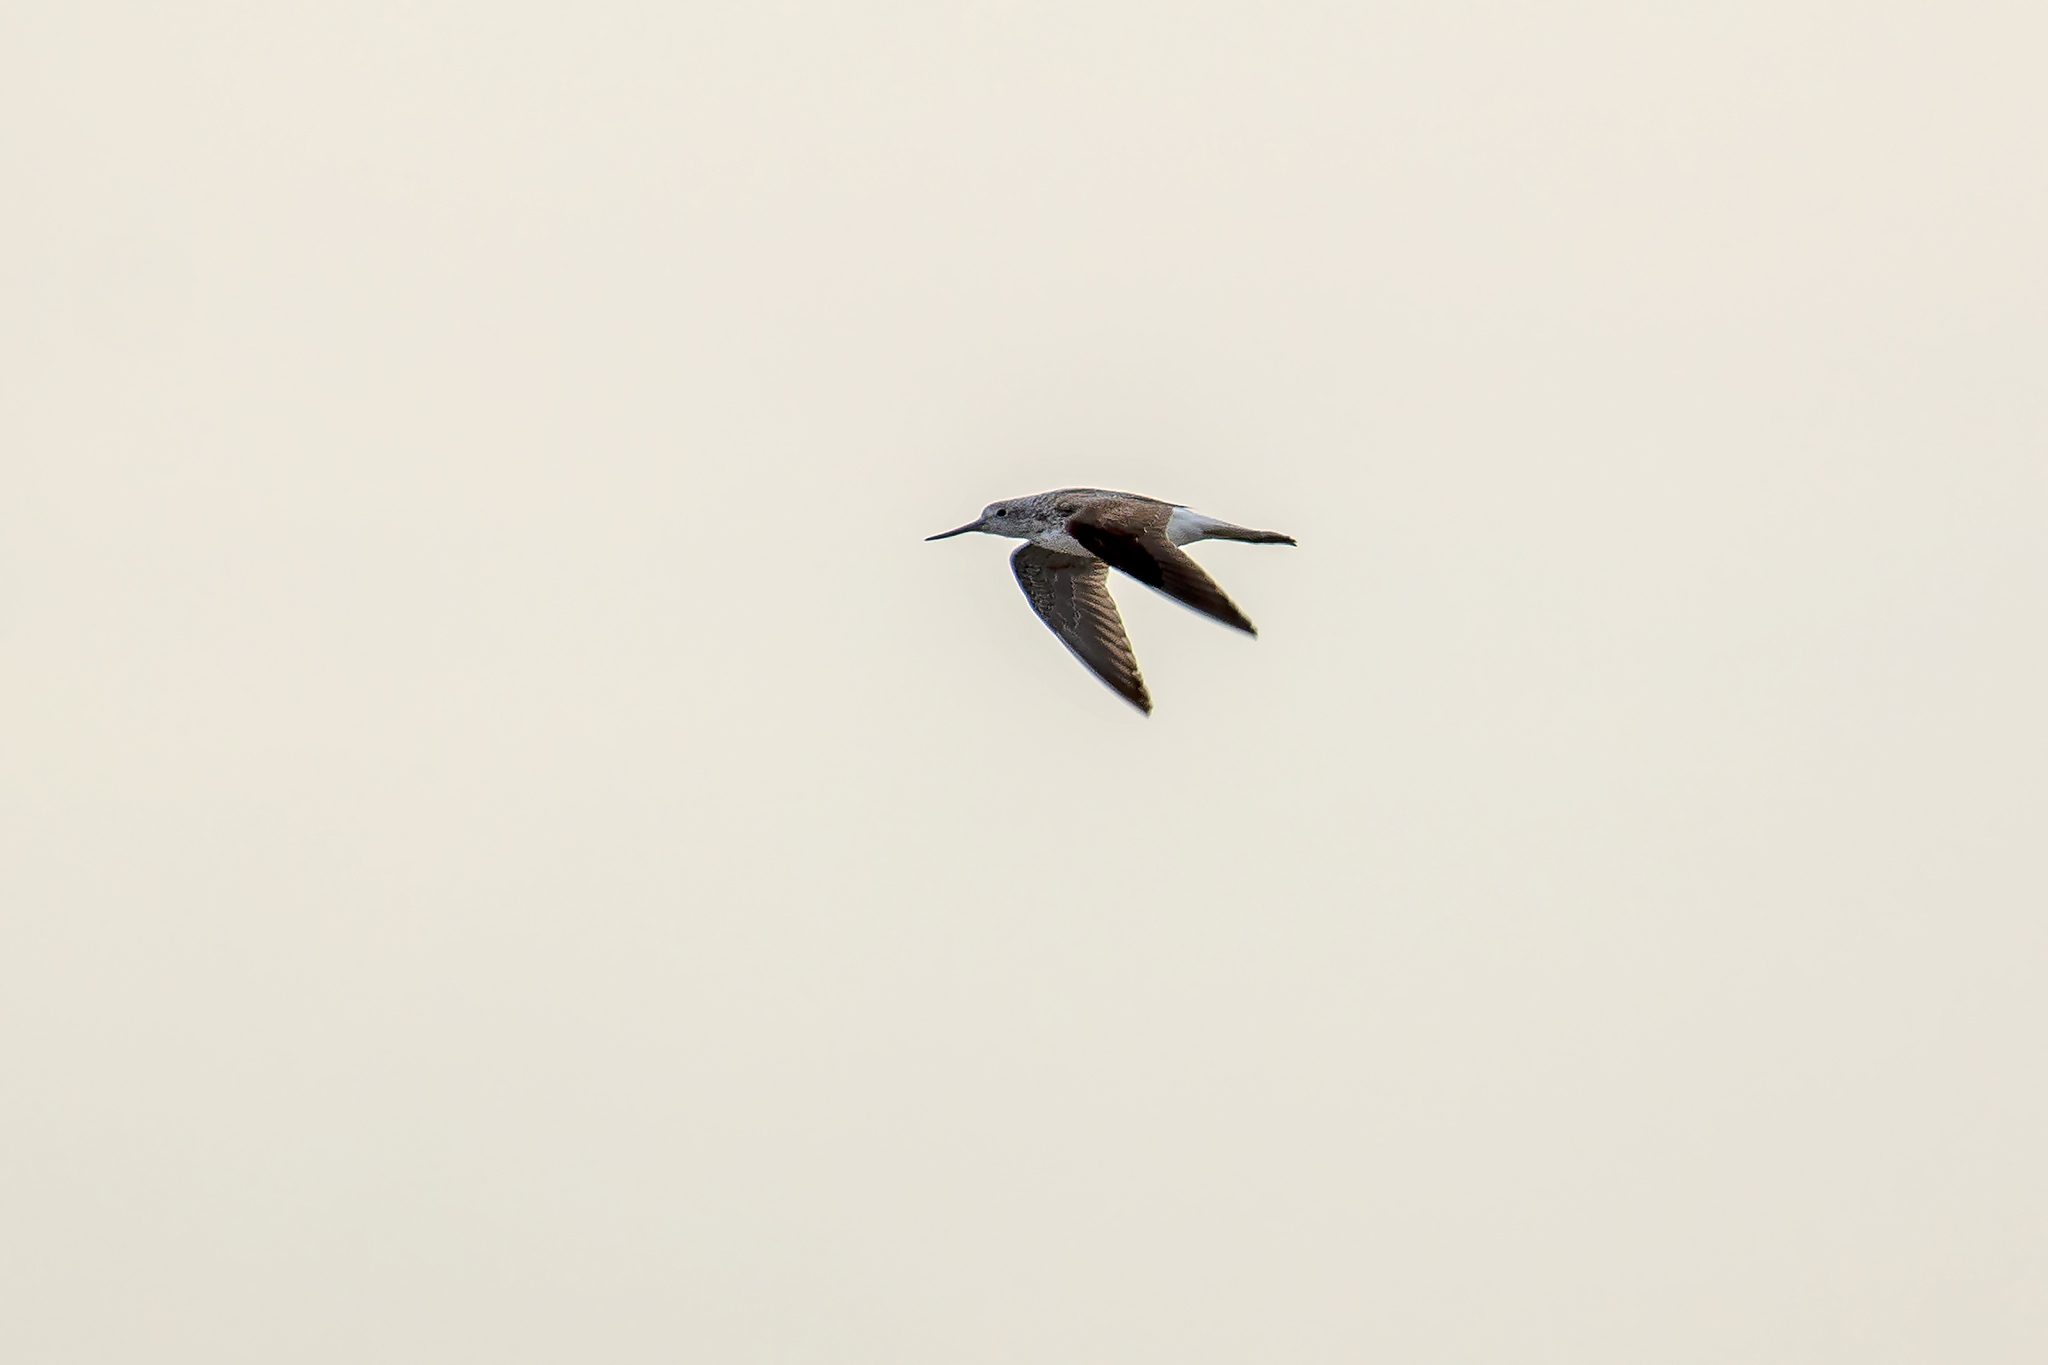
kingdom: Animalia
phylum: Chordata
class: Aves
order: Charadriiformes
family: Scolopacidae
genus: Tringa
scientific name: Tringa nebularia
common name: Common greenshank
